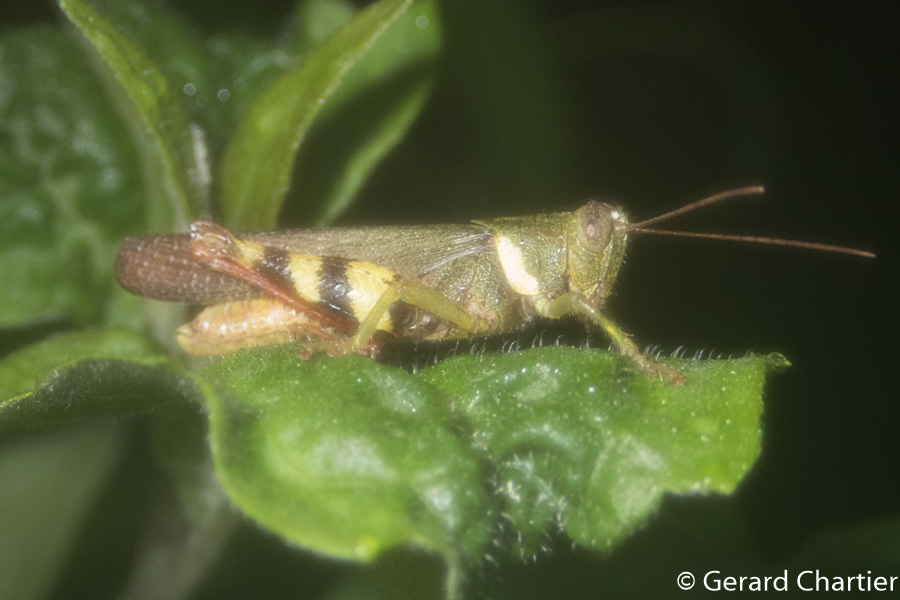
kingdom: Animalia
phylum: Arthropoda
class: Insecta
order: Orthoptera
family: Acrididae
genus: Apalacris
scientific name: Apalacris varicornis
